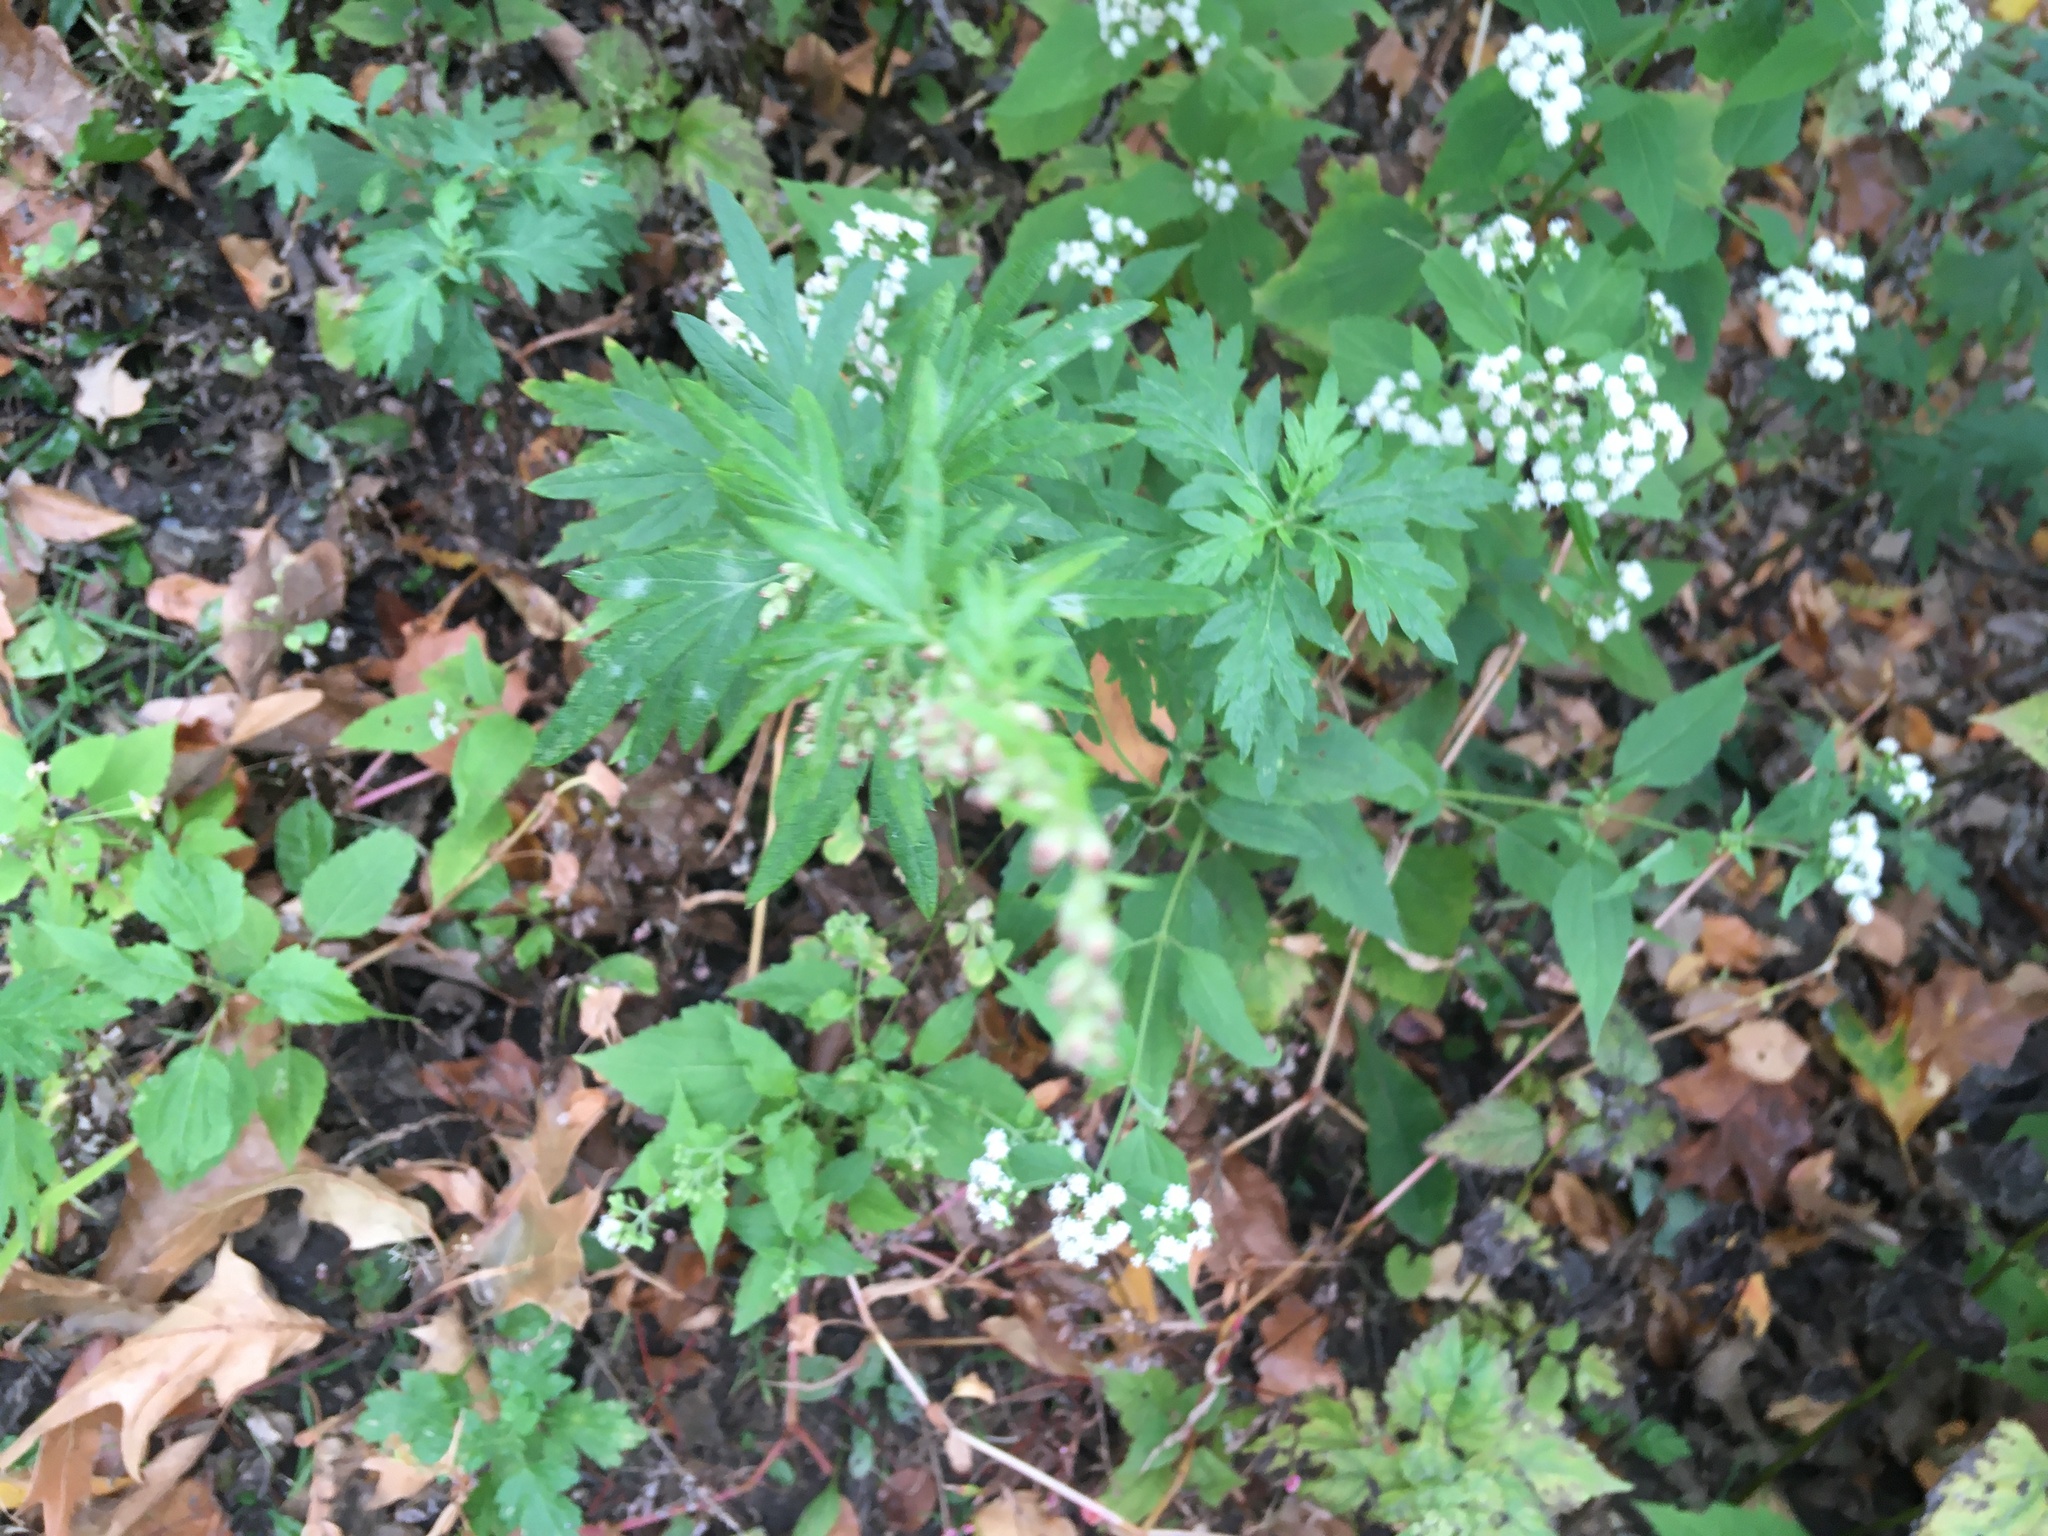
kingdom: Plantae
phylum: Tracheophyta
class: Magnoliopsida
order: Asterales
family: Asteraceae
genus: Artemisia
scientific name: Artemisia vulgaris
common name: Mugwort
